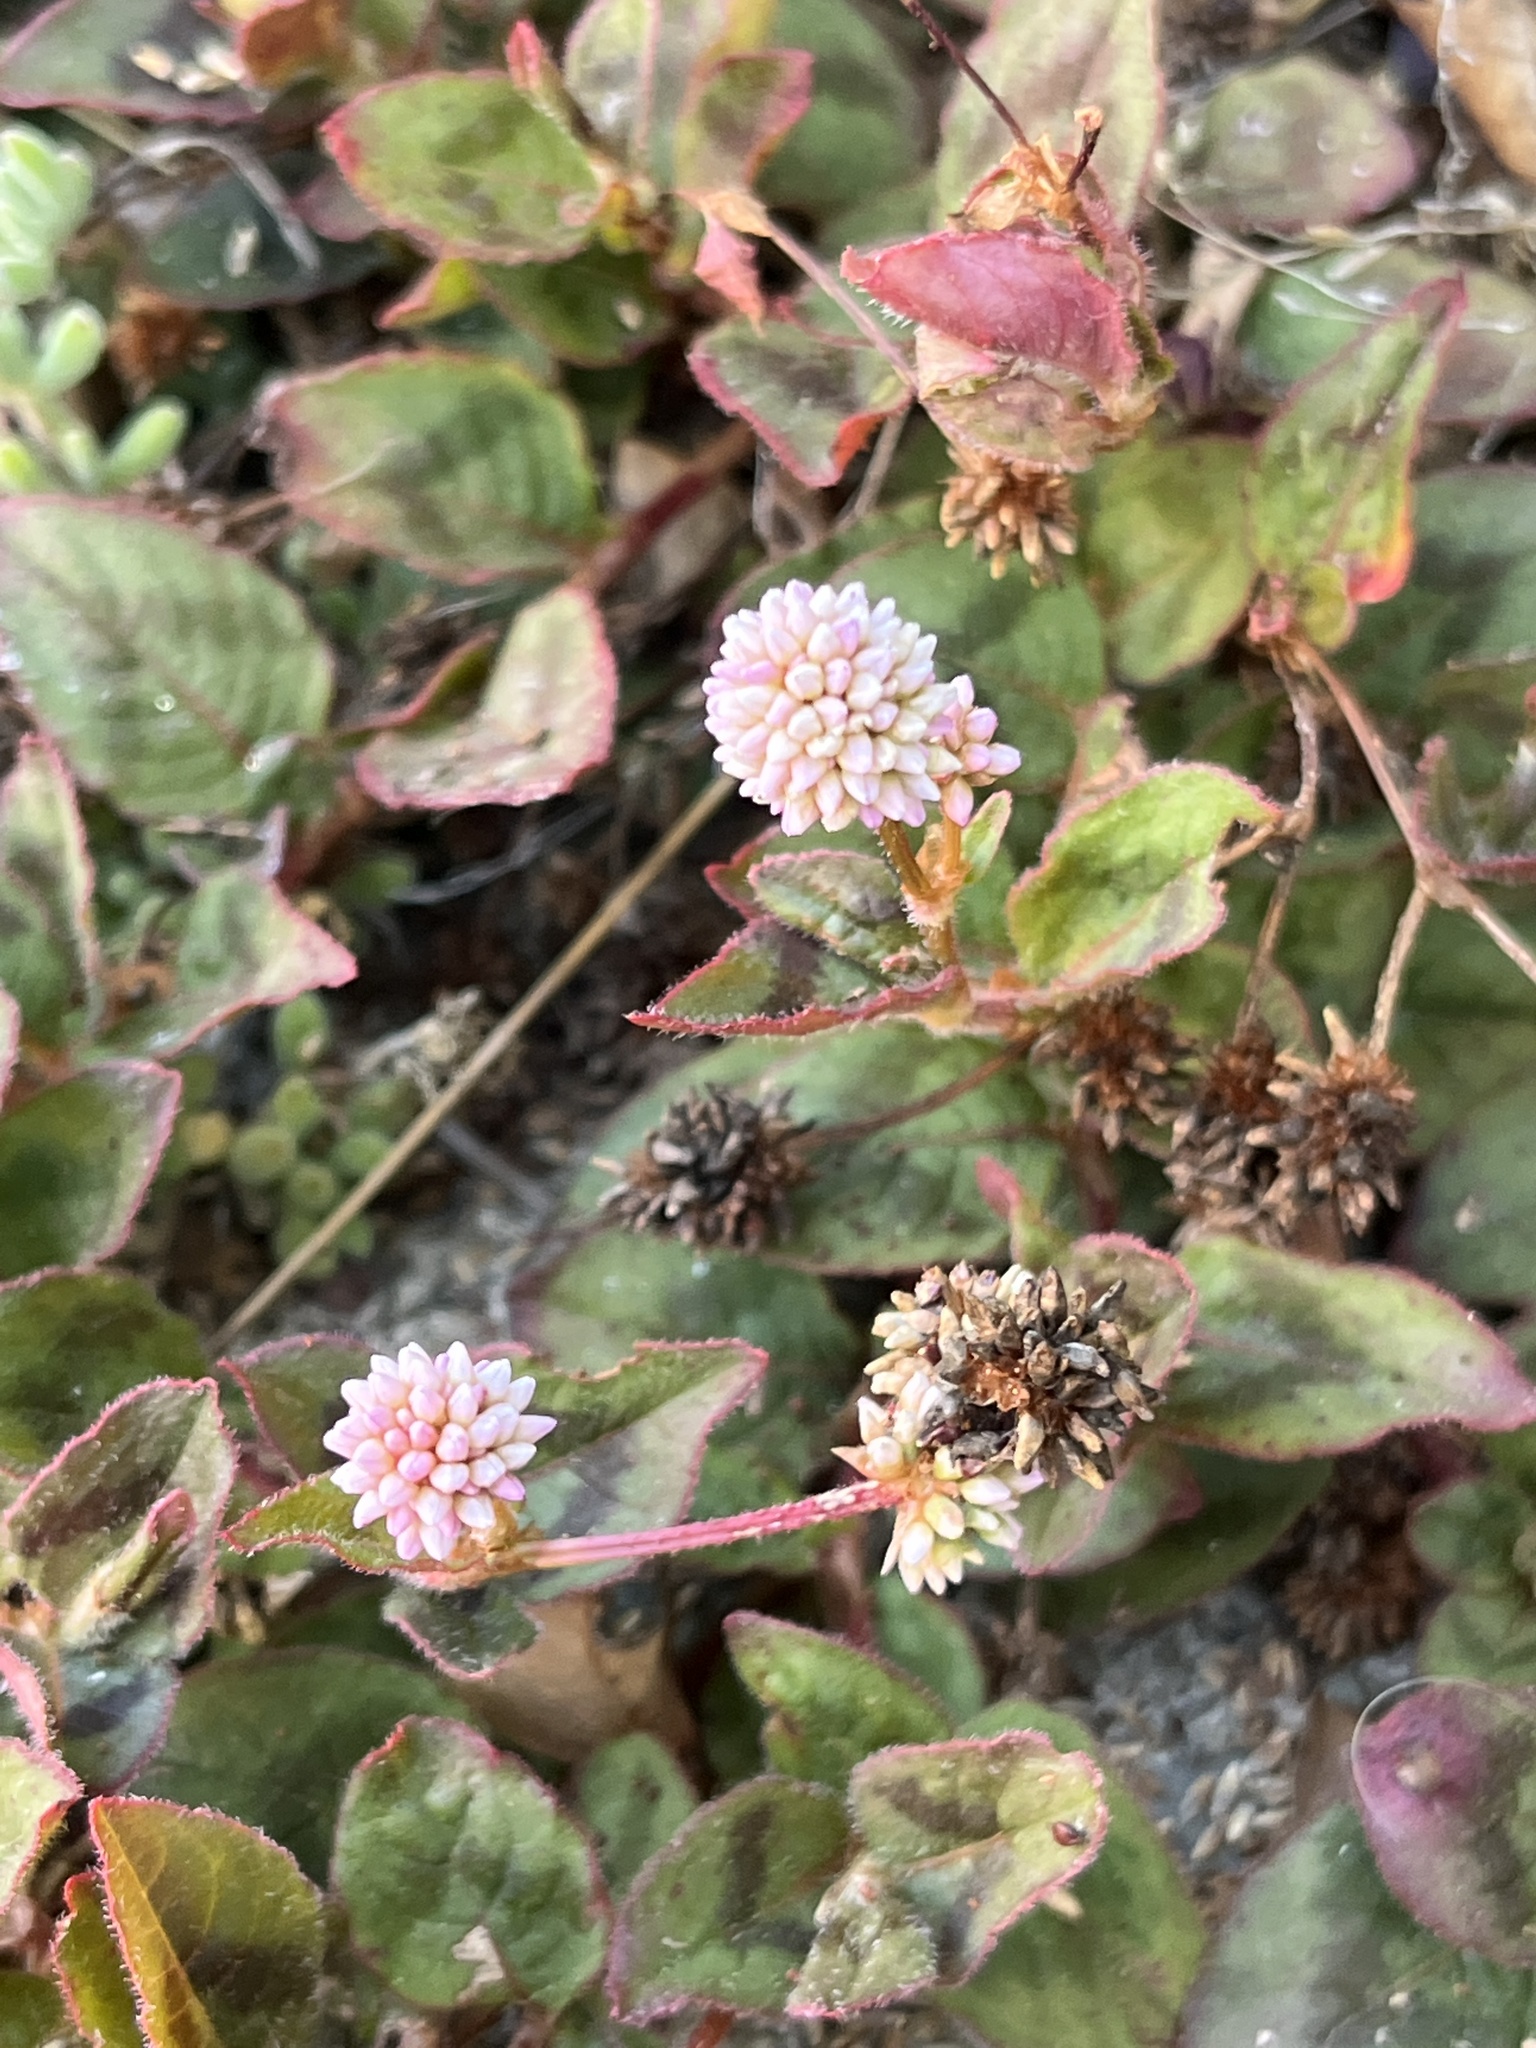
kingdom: Plantae
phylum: Tracheophyta
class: Magnoliopsida
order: Caryophyllales
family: Polygonaceae
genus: Persicaria
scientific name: Persicaria capitata
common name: Pinkhead smartweed
